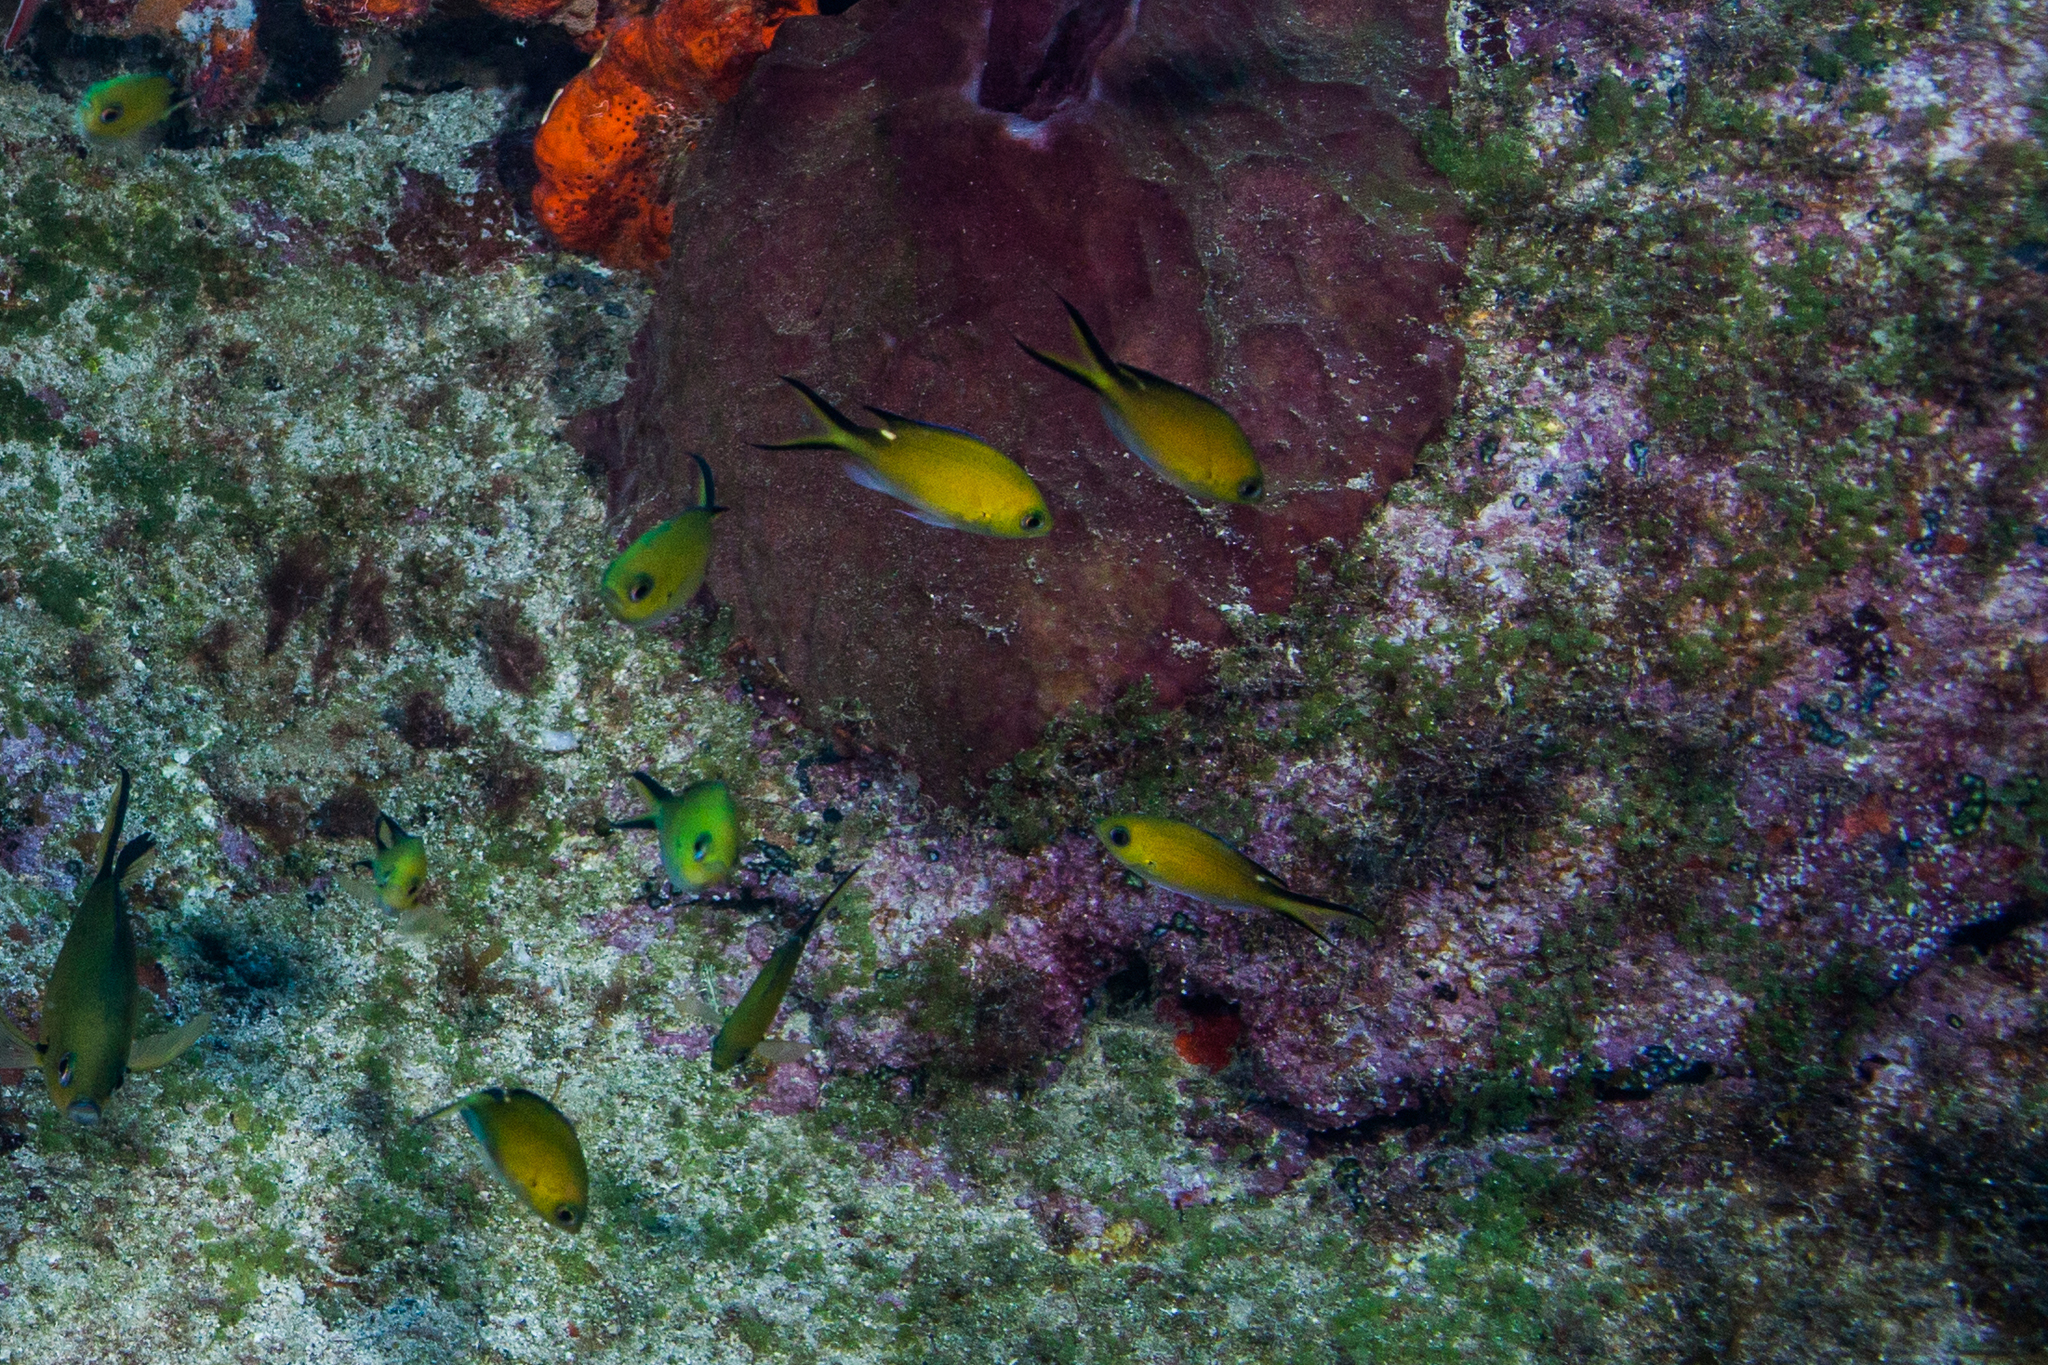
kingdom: Animalia
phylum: Chordata
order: Perciformes
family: Pomacentridae
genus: Chromis
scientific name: Chromis multilineata
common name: Brown chromis
